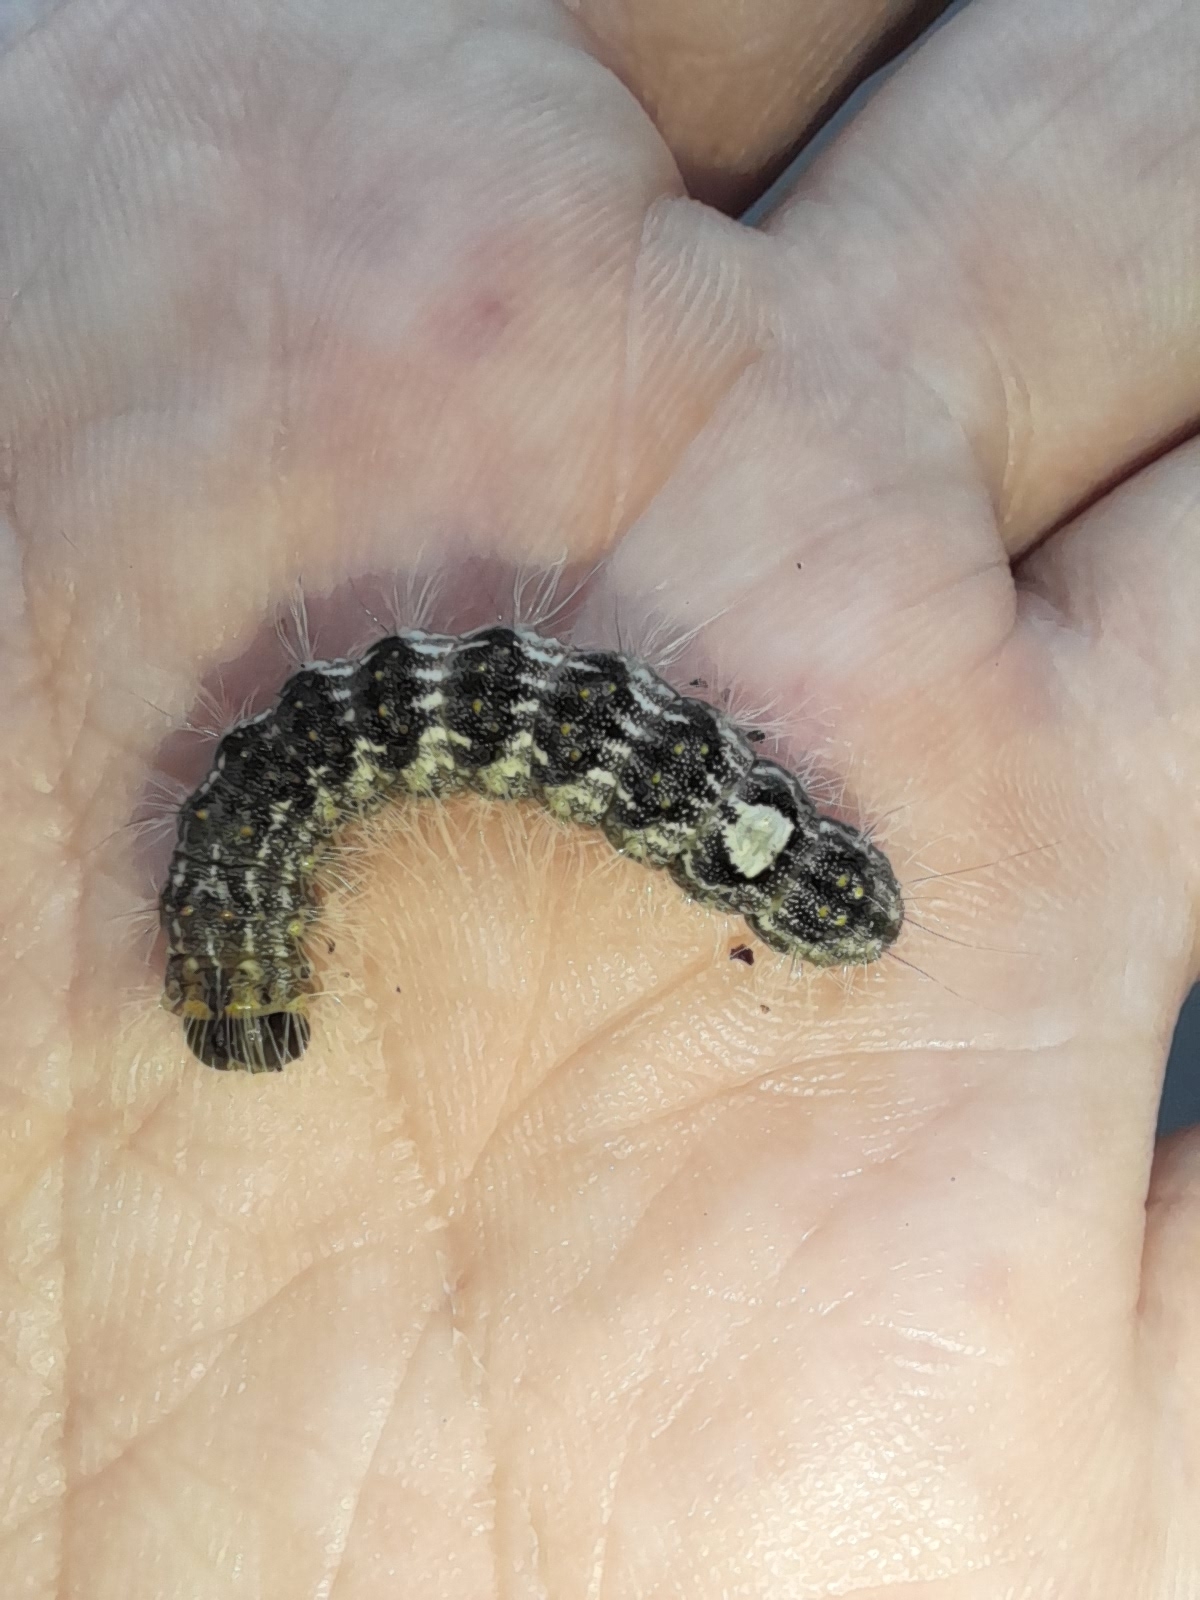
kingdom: Animalia
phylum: Arthropoda
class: Insecta
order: Lepidoptera
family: Noctuidae
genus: Acronicta
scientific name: Acronicta megacephala
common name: Poplar grey
